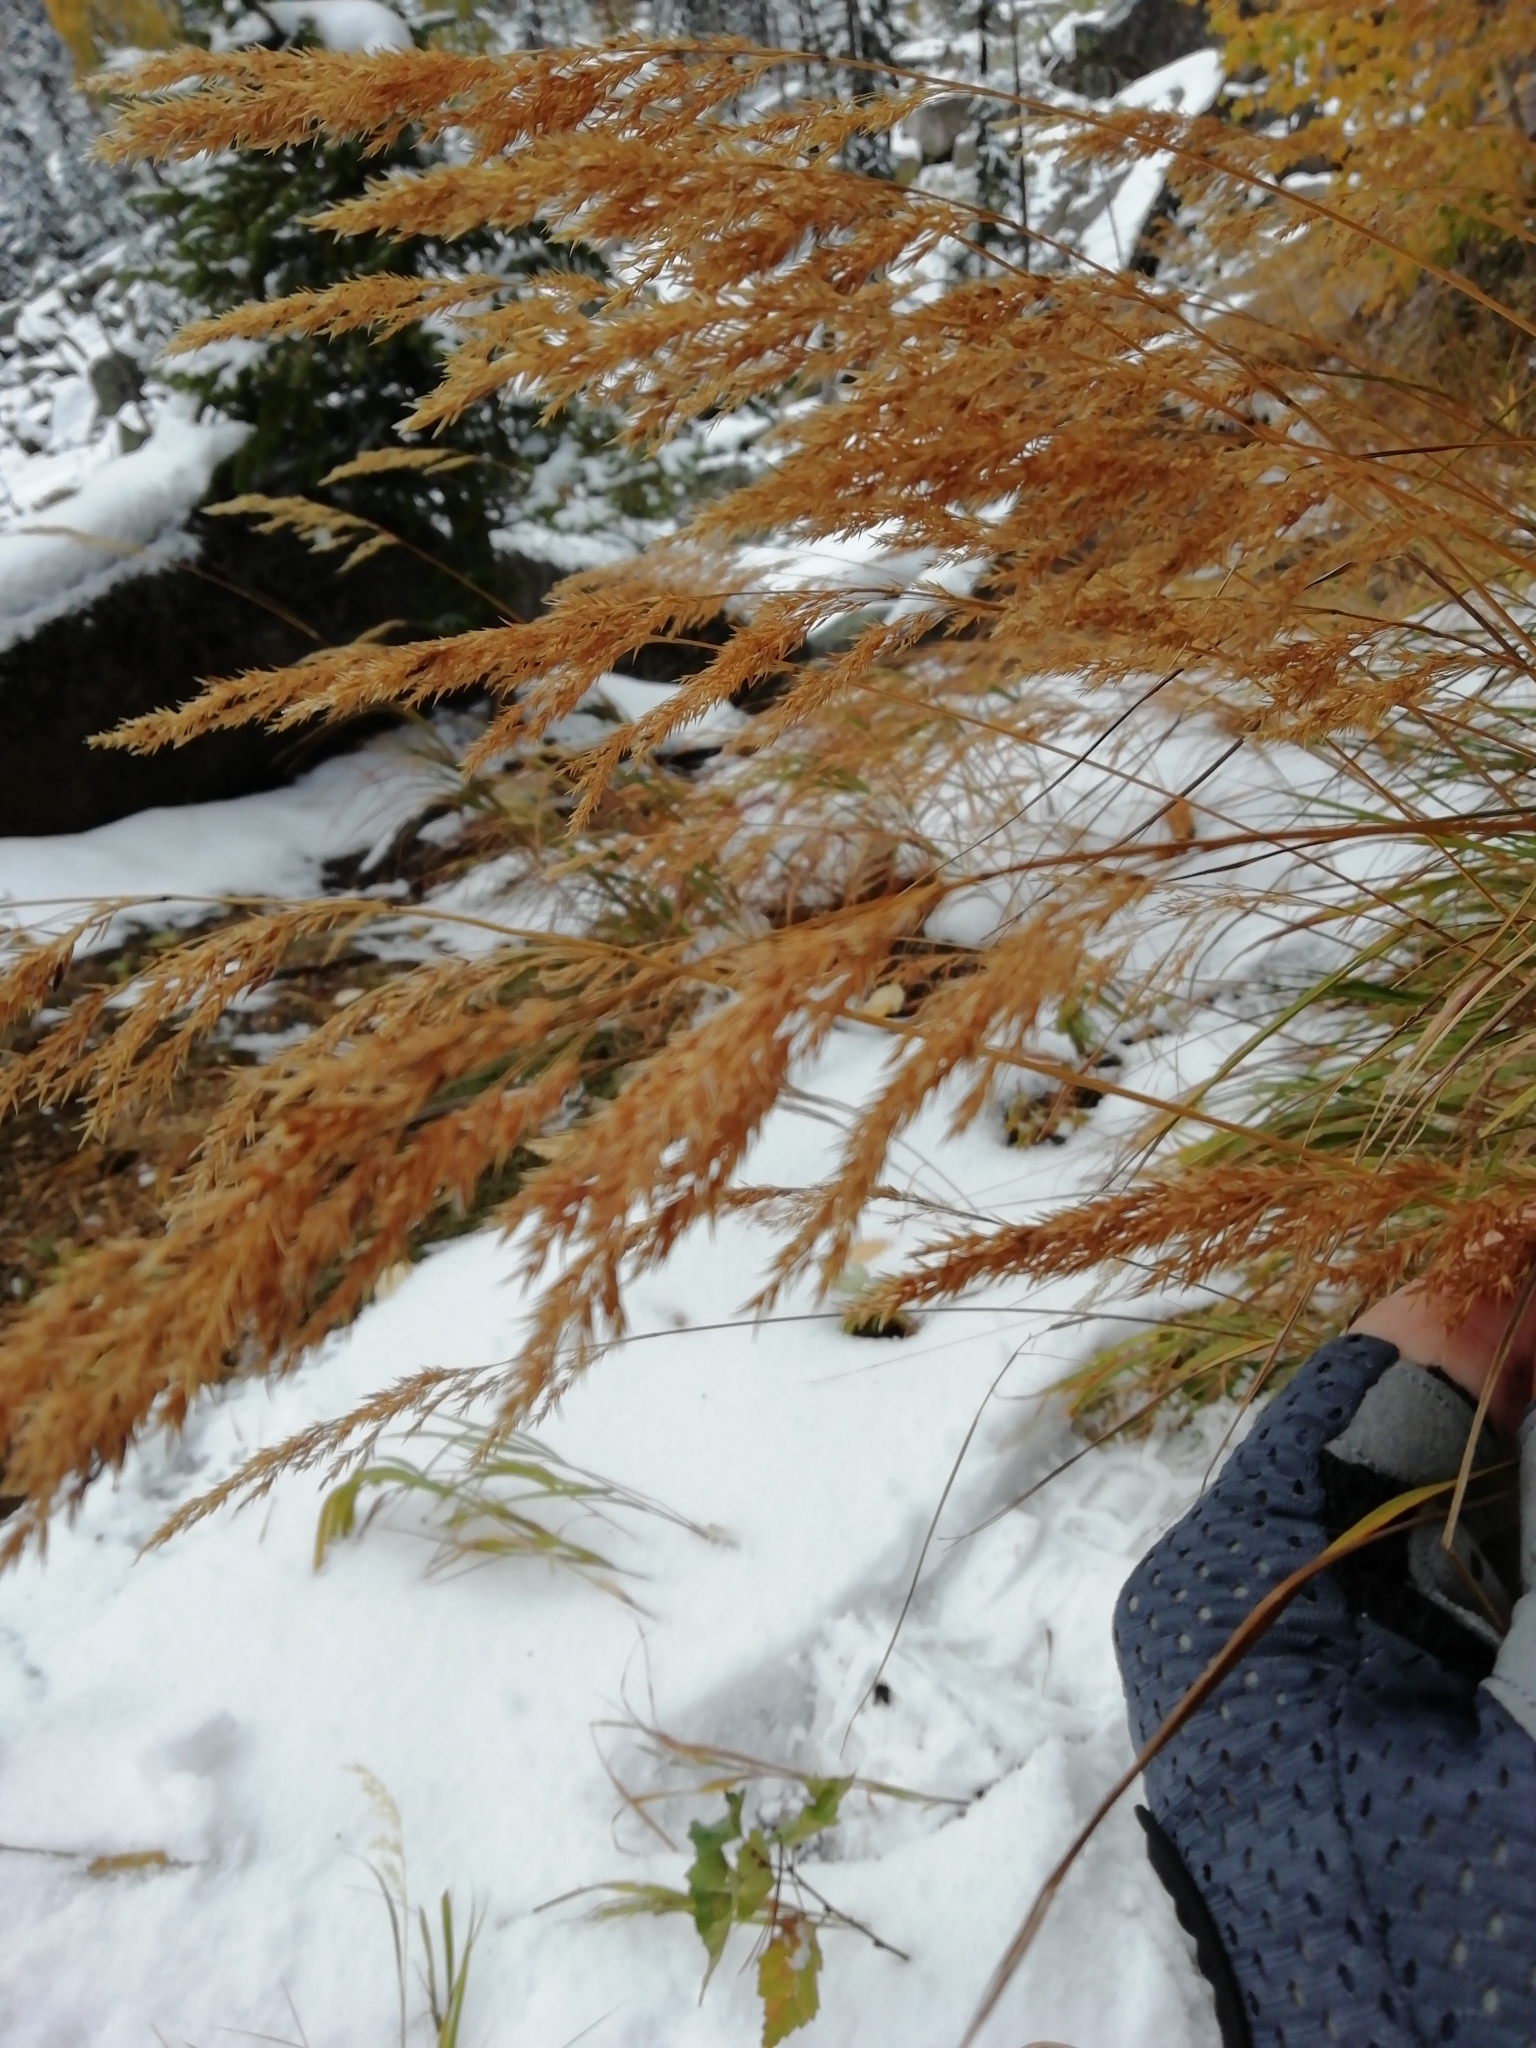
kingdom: Plantae
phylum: Tracheophyta
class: Liliopsida
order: Poales
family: Poaceae
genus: Calamagrostis
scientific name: Calamagrostis purpurea
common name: Scandinavian small-reed
